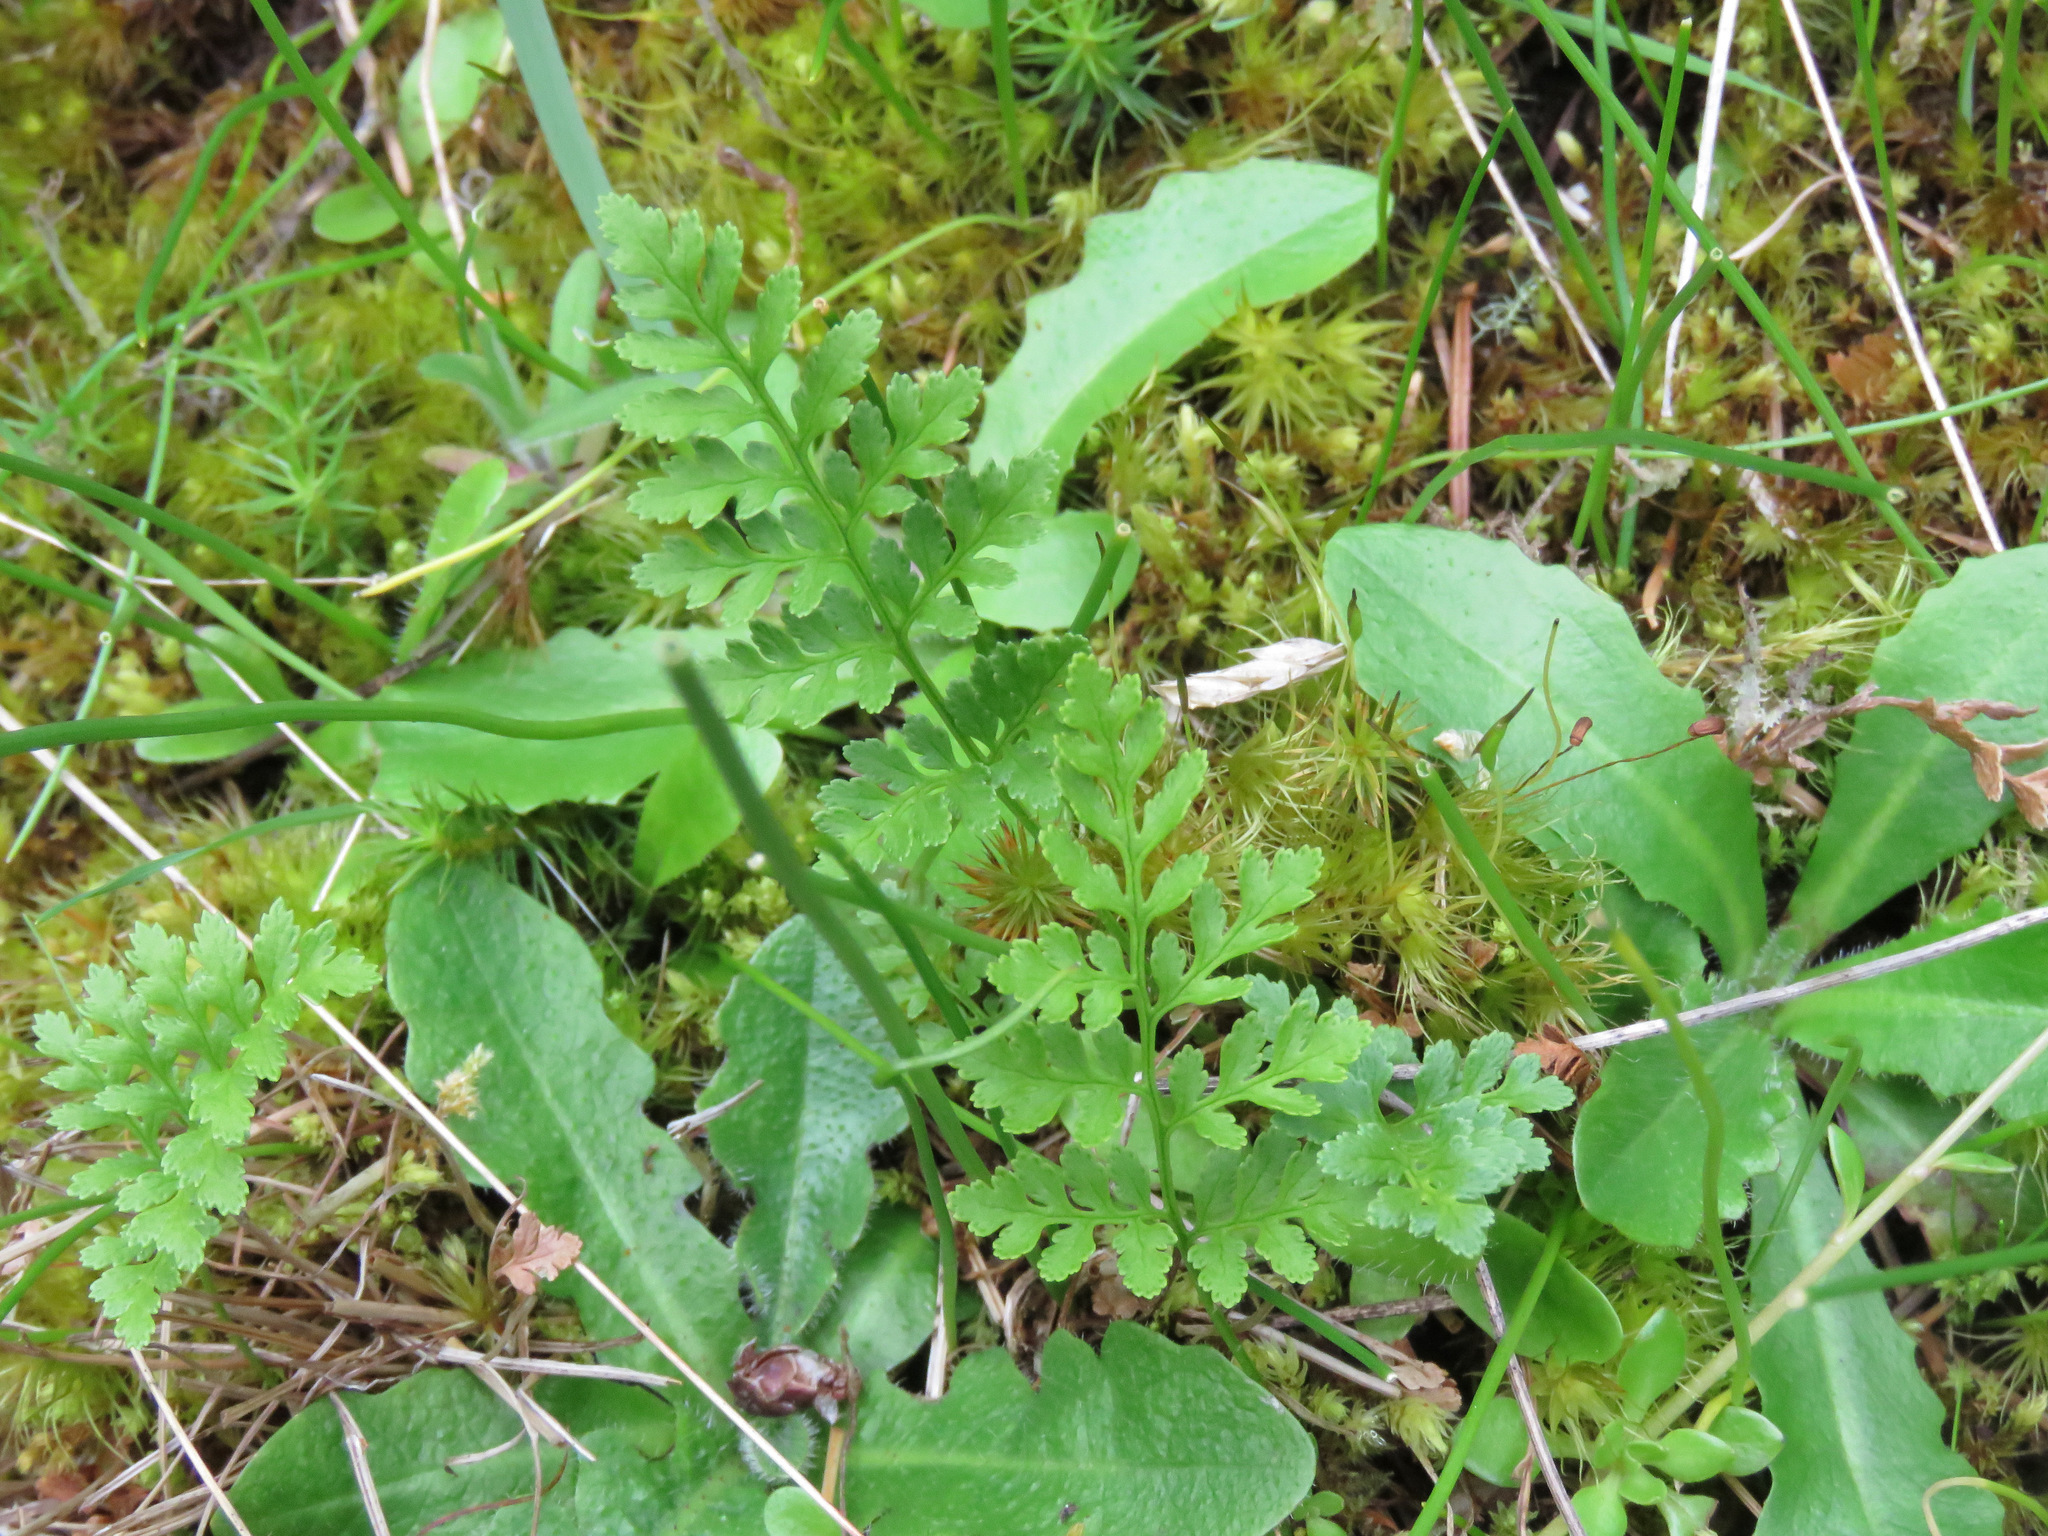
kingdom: Plantae
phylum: Tracheophyta
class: Polypodiopsida
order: Polypodiales
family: Pteridaceae
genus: Cryptogramma
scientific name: Cryptogramma acrostichoides
